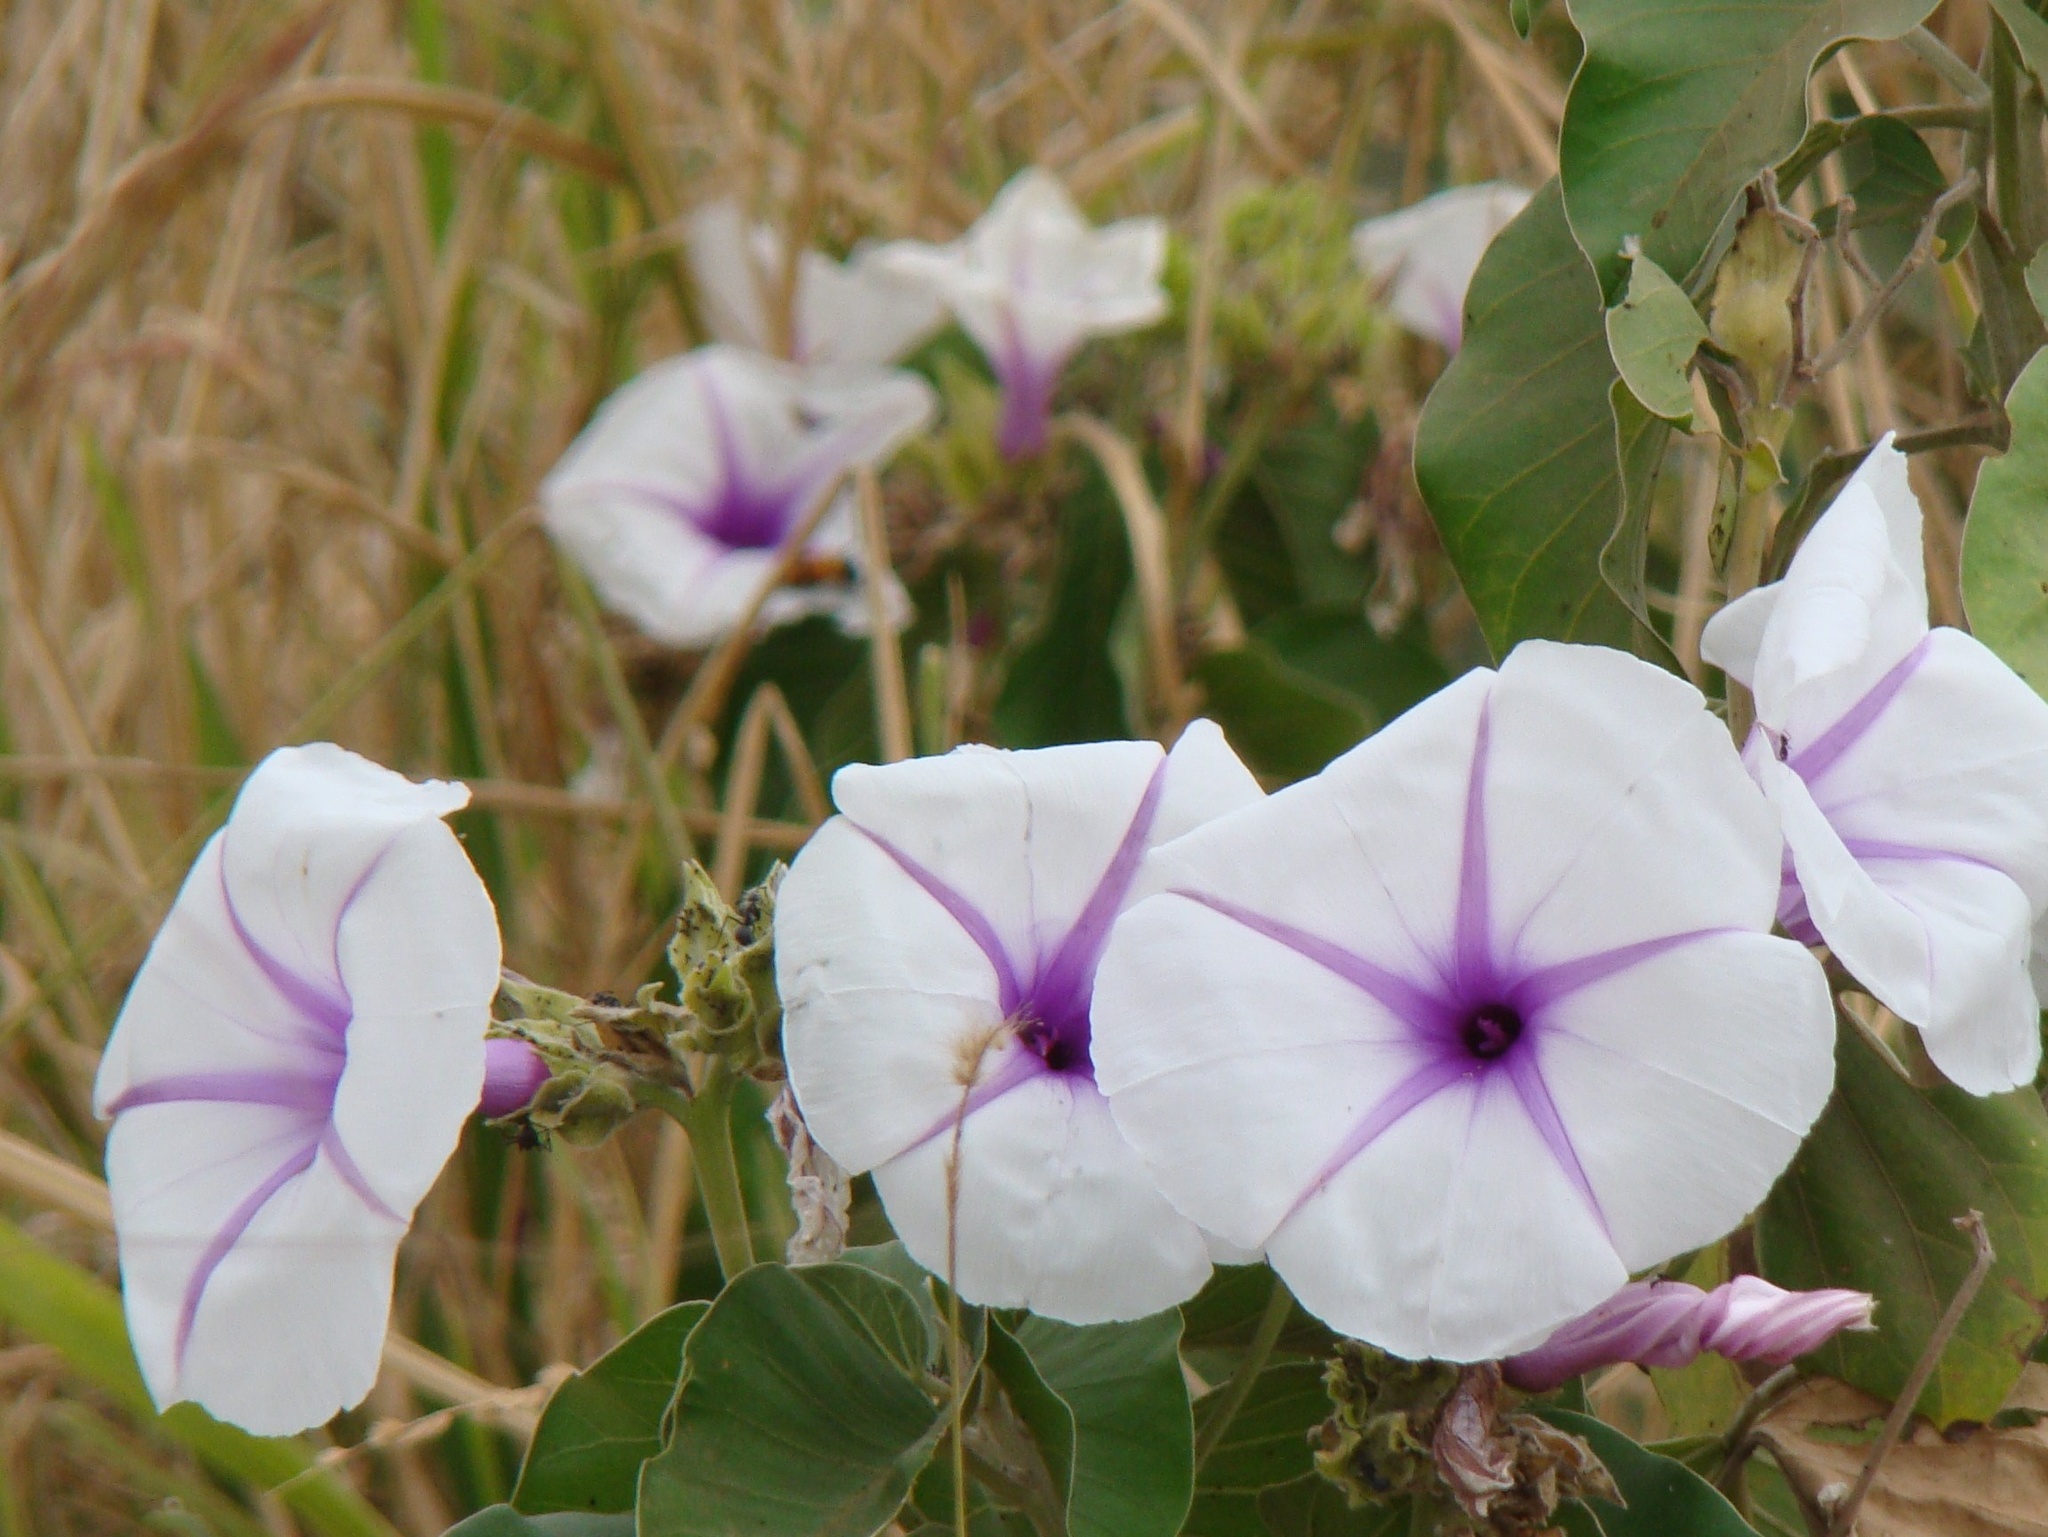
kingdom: Plantae
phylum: Tracheophyta
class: Magnoliopsida
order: Solanales
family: Convolvulaceae
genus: Ipomoea
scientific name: Ipomoea hildebrandtii
